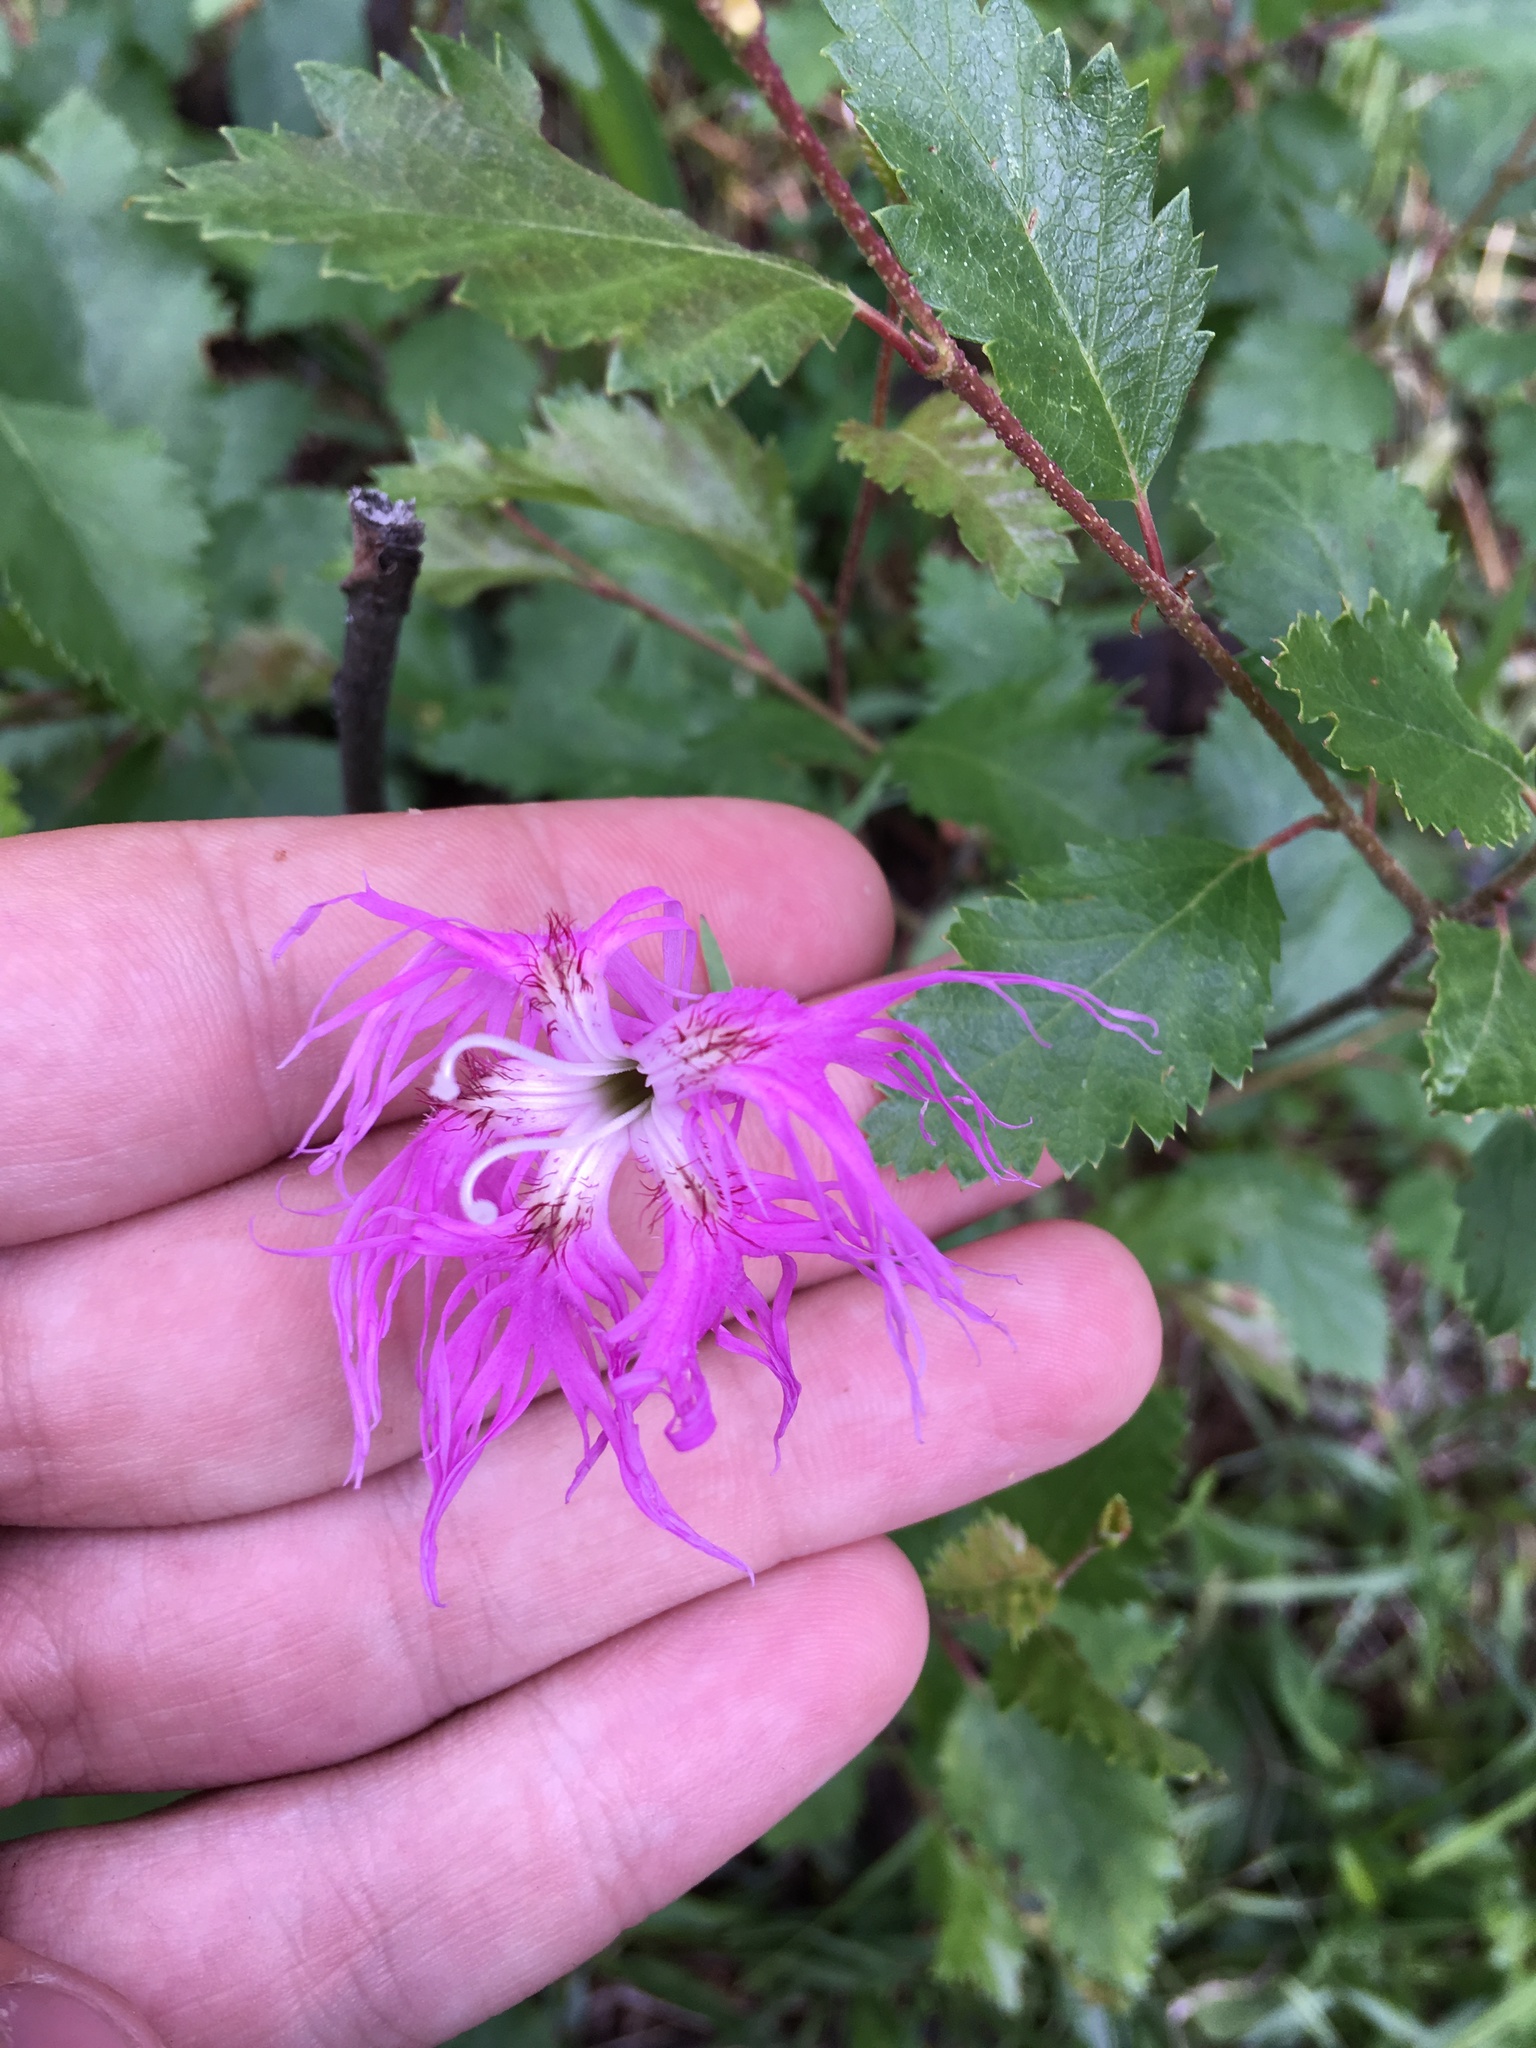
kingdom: Plantae
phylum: Tracheophyta
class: Magnoliopsida
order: Caryophyllales
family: Caryophyllaceae
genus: Dianthus
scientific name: Dianthus superbus
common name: Fringed pink
